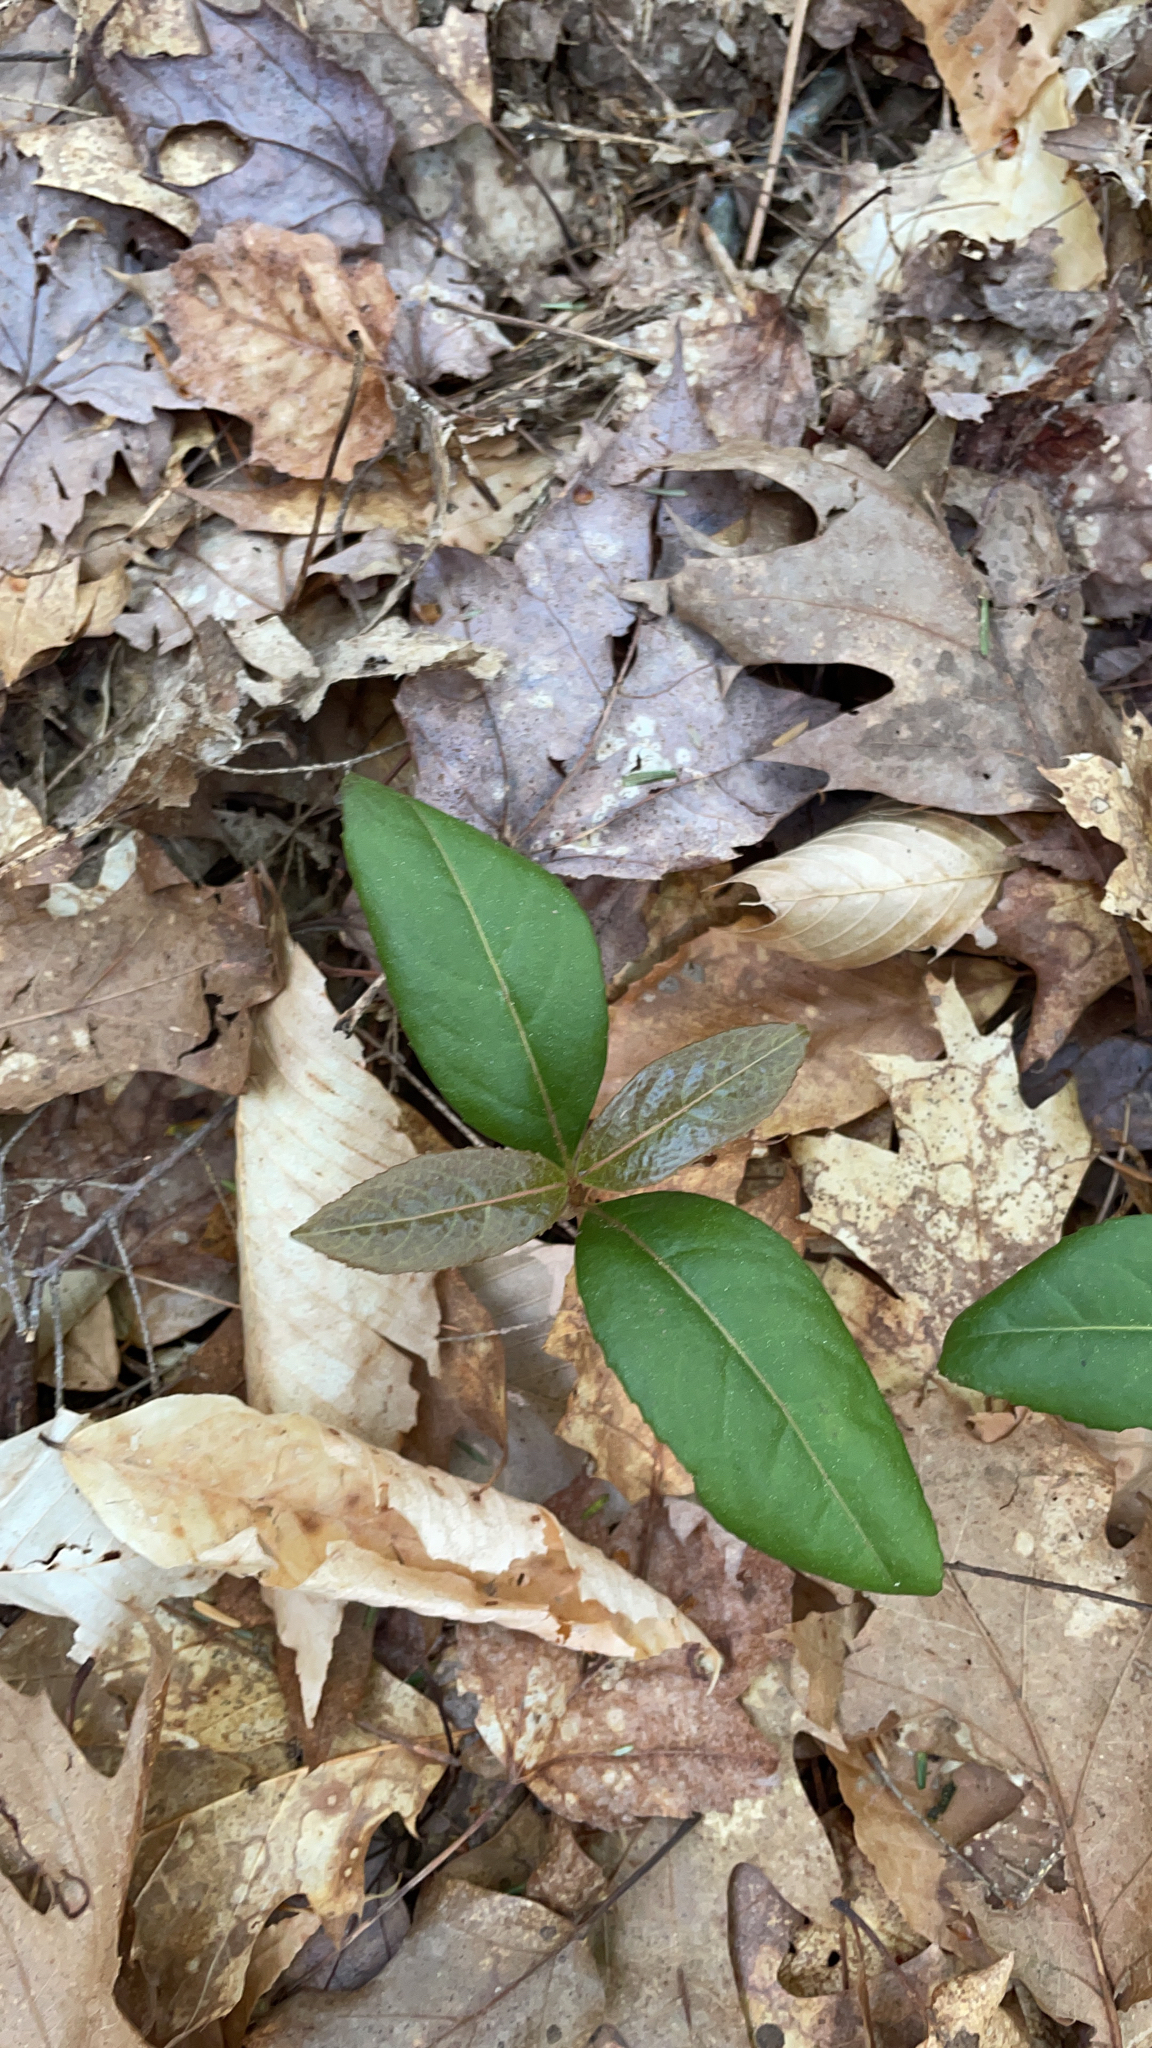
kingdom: Plantae
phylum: Tracheophyta
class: Magnoliopsida
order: Dipsacales
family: Viburnaceae
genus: Viburnum
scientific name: Viburnum cassinoides
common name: Swamp haw
